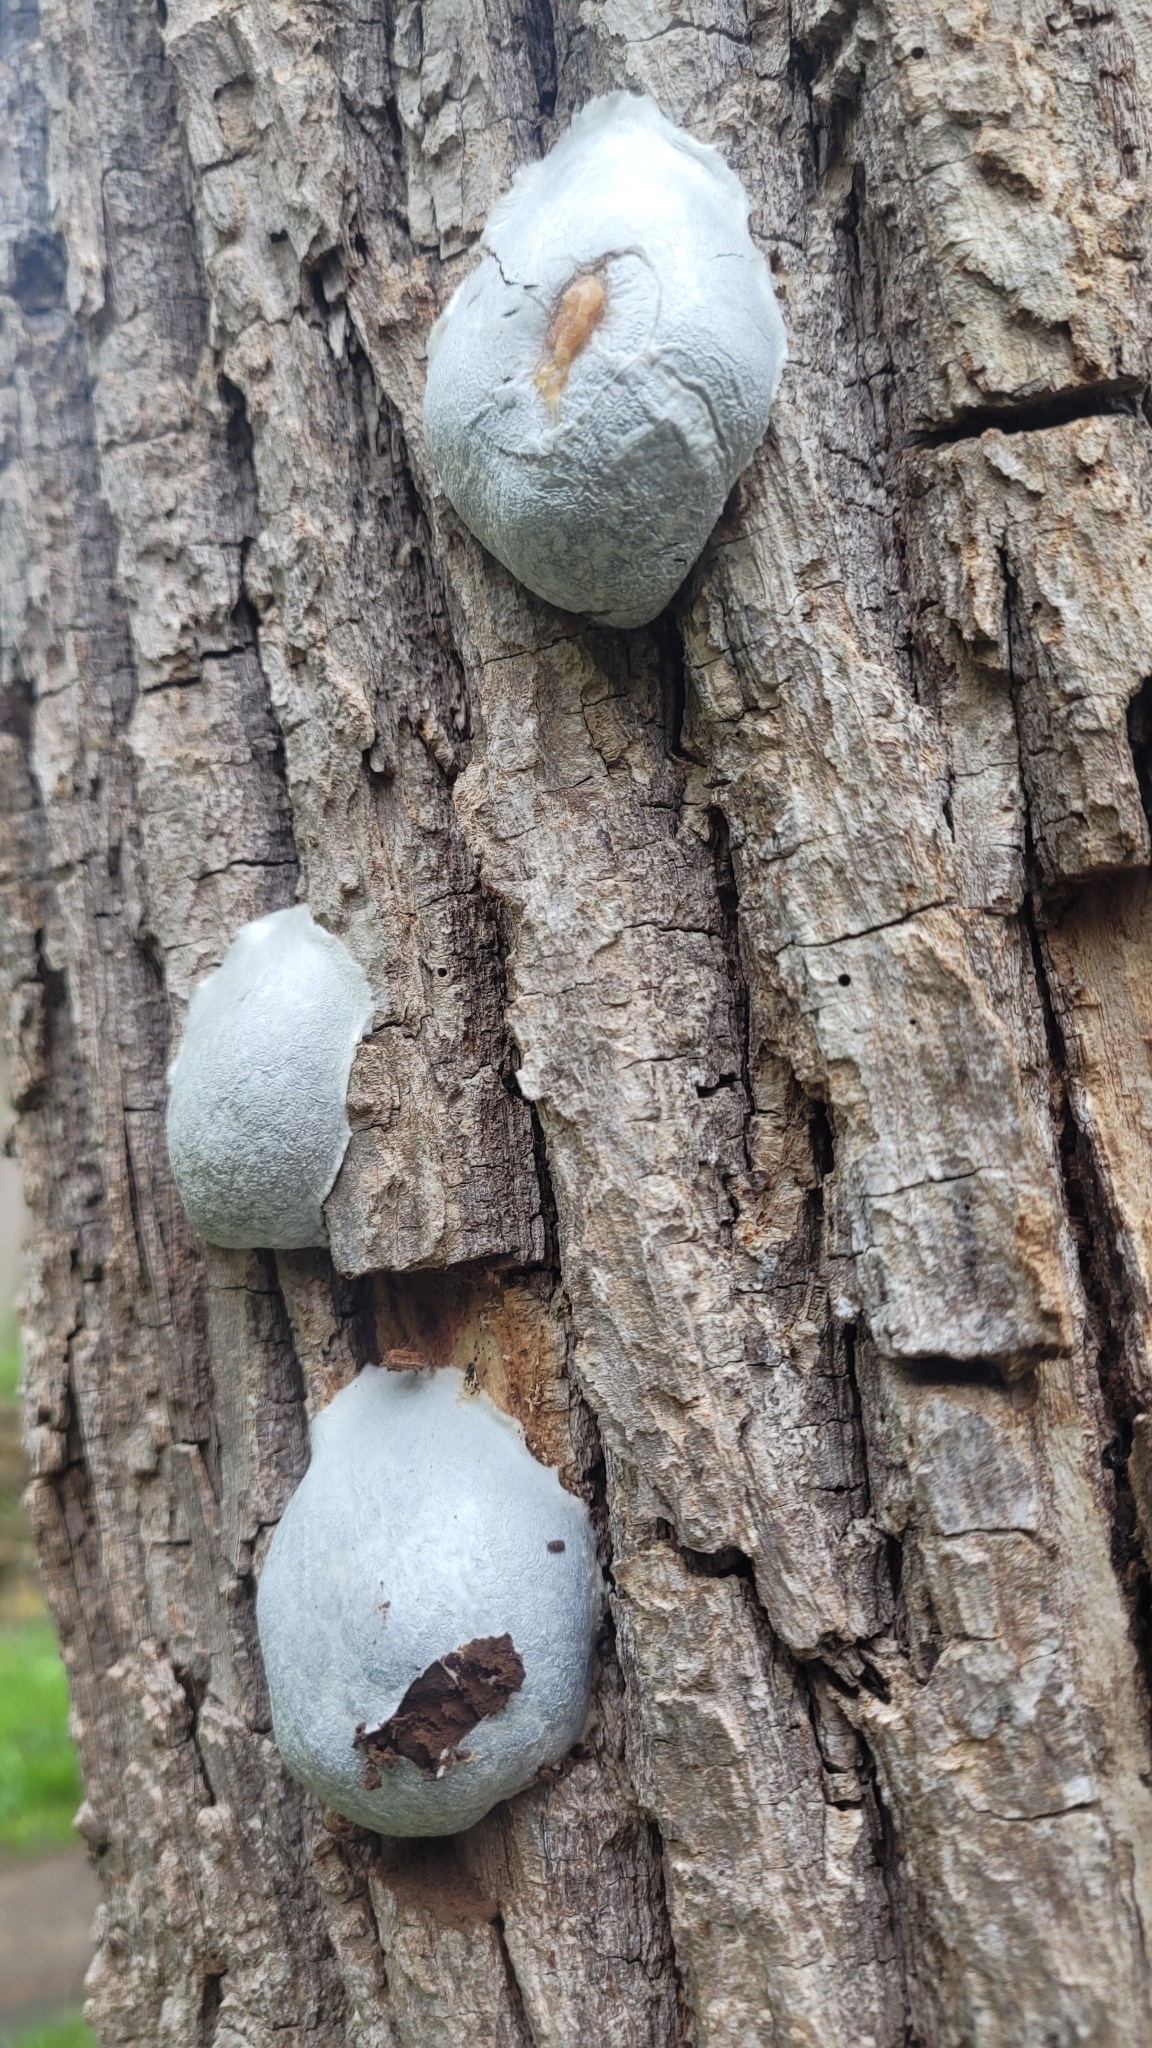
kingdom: Protozoa
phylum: Mycetozoa
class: Myxomycetes
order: Cribrariales
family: Tubiferaceae
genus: Reticularia
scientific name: Reticularia lycoperdon
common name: False puffball
